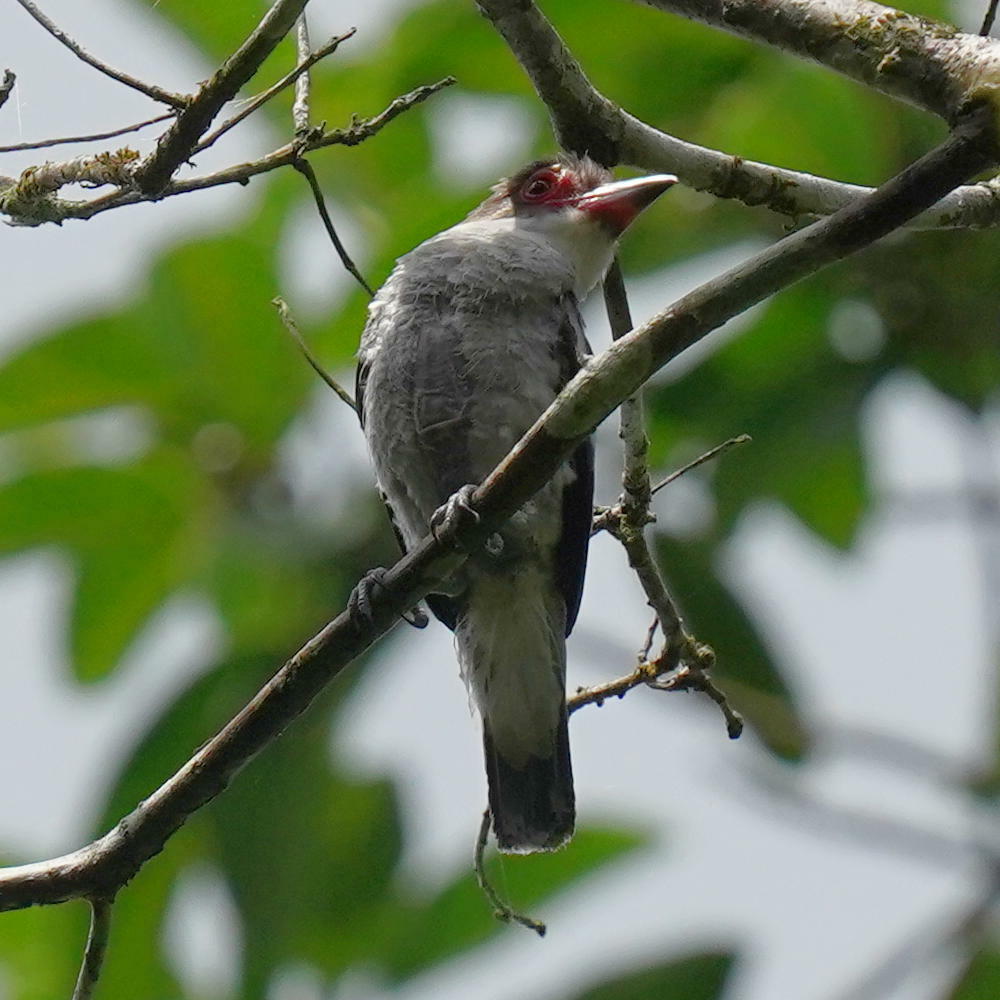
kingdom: Animalia
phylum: Chordata
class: Aves
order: Passeriformes
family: Cotingidae
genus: Tityra
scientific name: Tityra semifasciata
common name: Masked tityra
